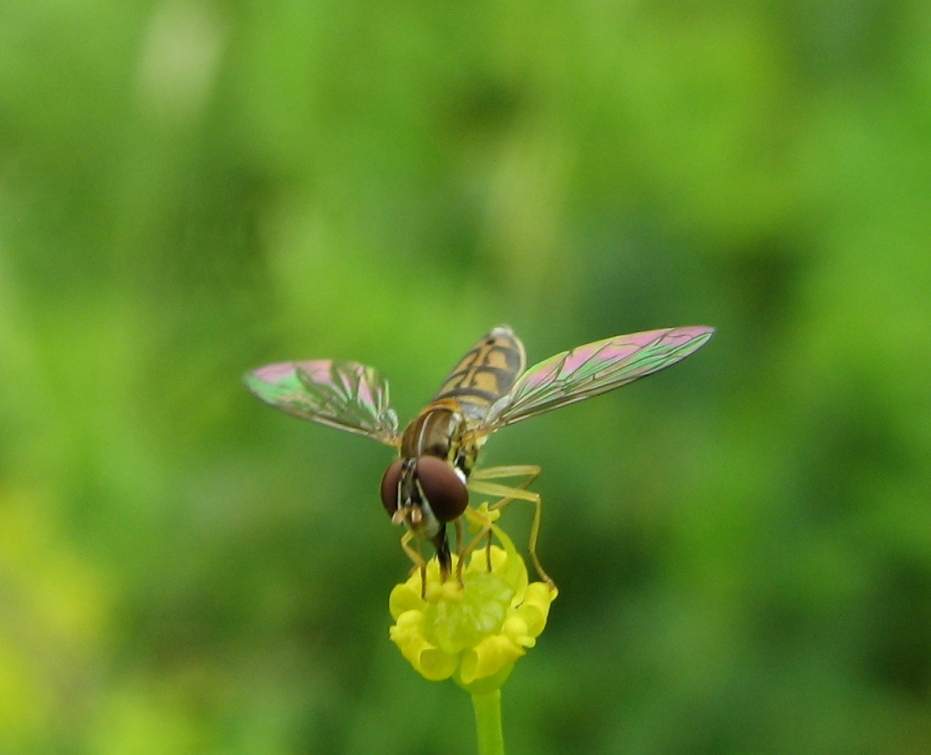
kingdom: Animalia
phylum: Arthropoda
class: Insecta
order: Diptera
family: Syrphidae
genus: Toxomerus
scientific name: Toxomerus marginatus
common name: Syrphid fly
